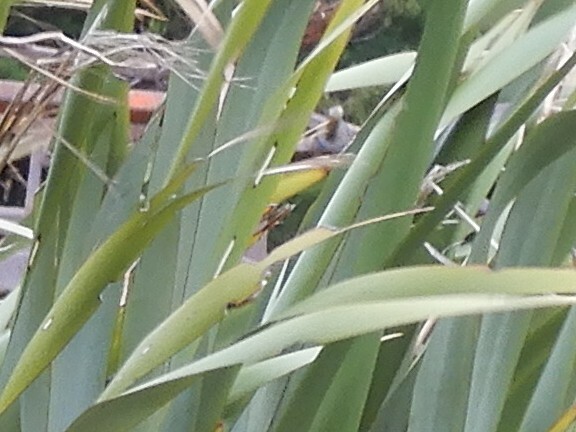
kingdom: Animalia
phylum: Arthropoda
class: Insecta
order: Lepidoptera
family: Geometridae
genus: Orthoclydon
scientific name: Orthoclydon praefectata
